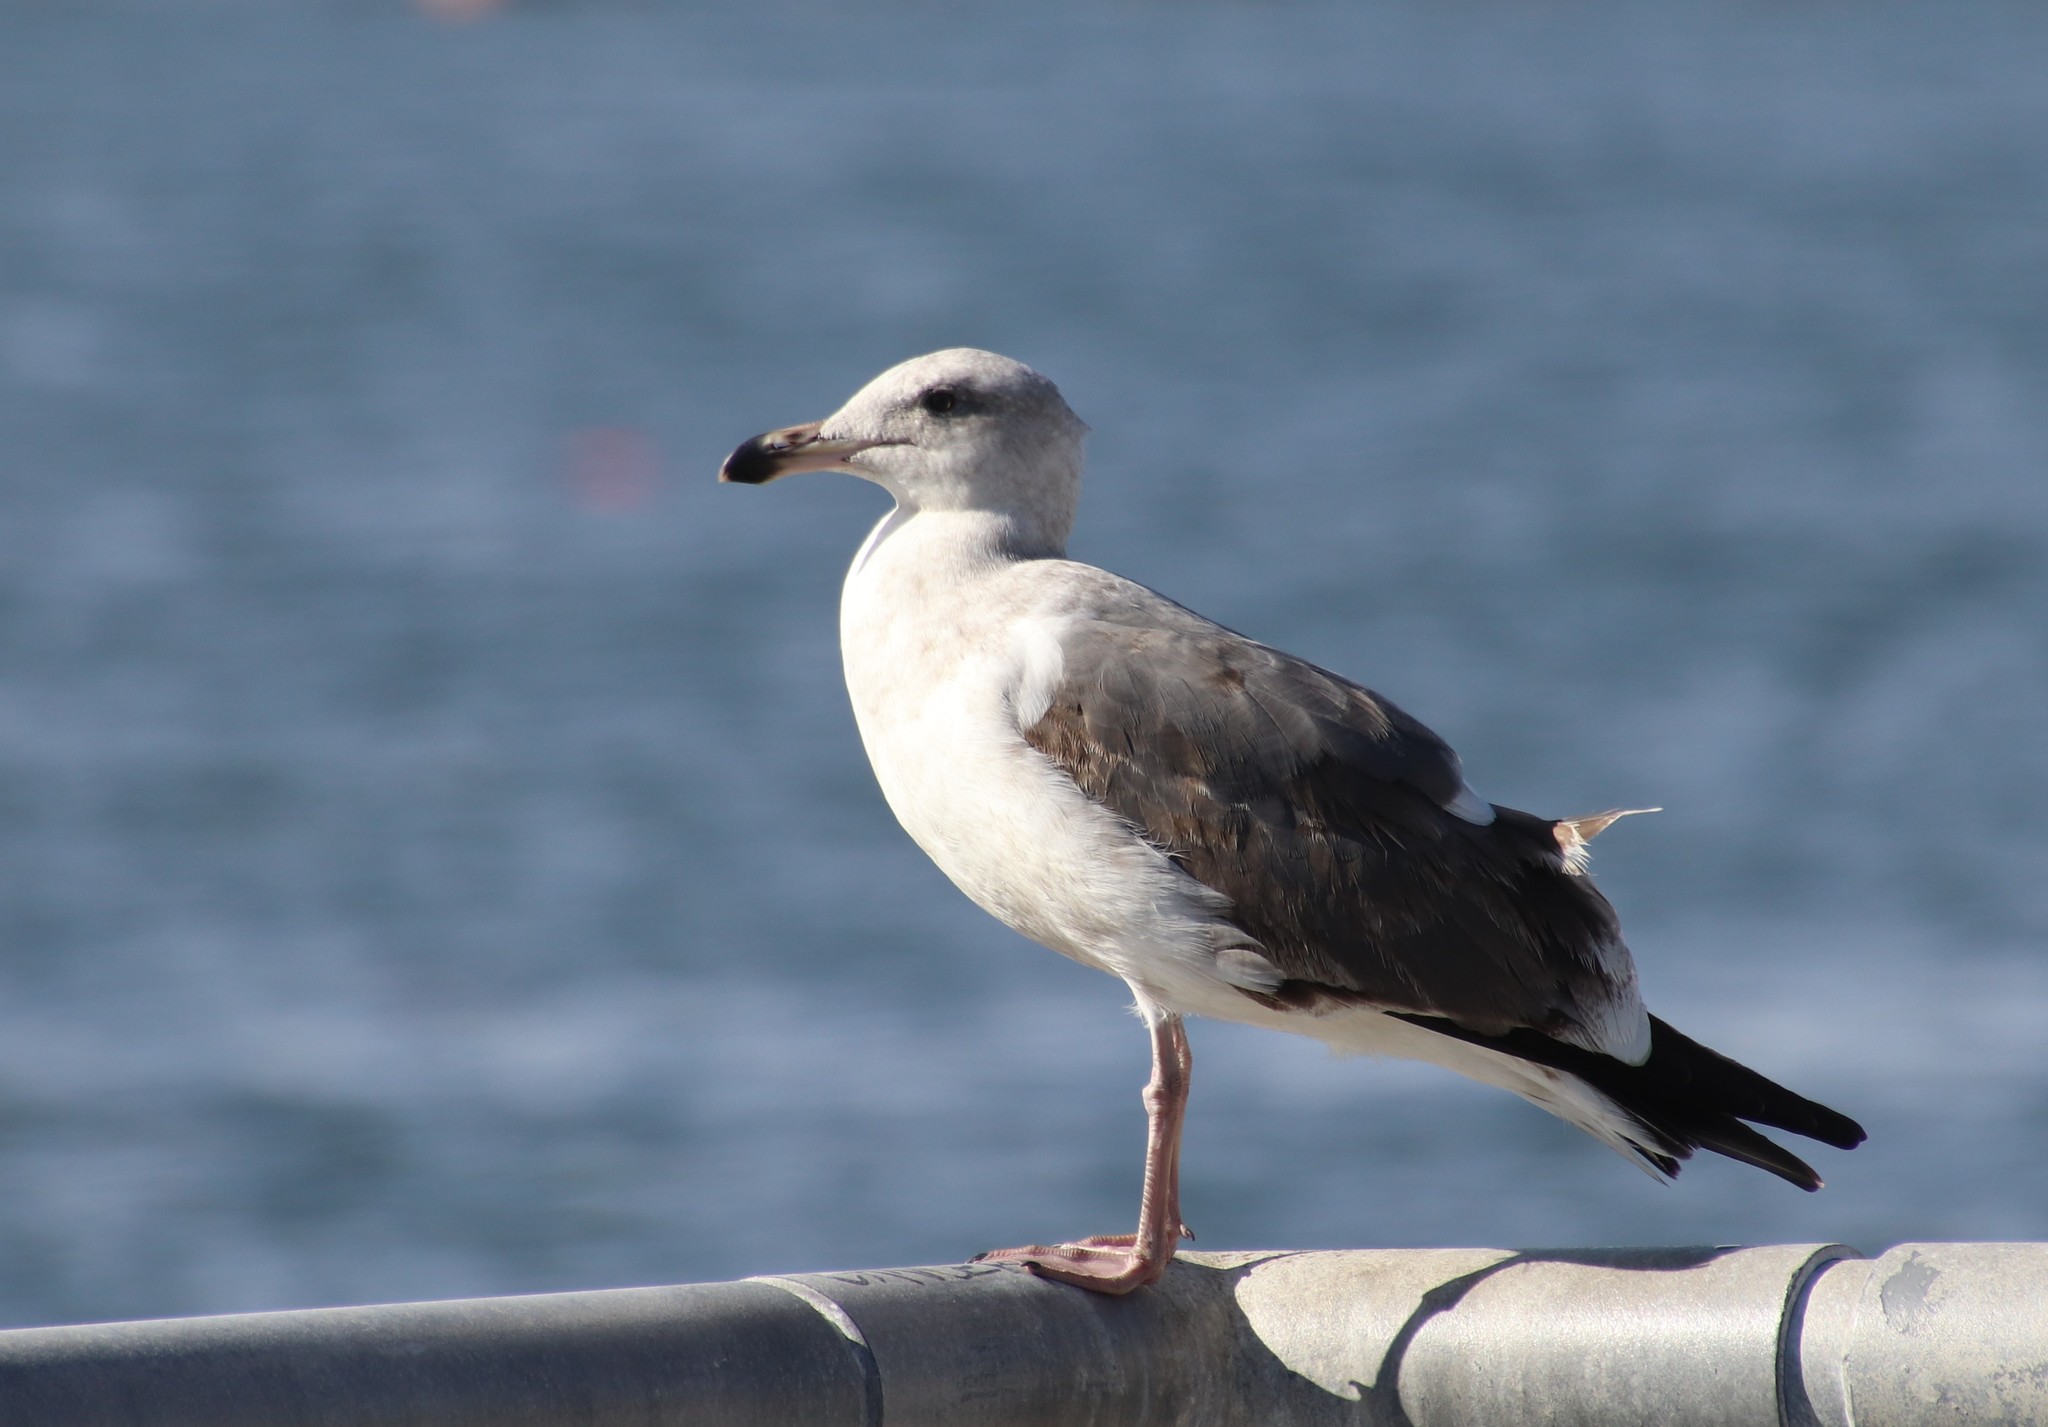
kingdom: Animalia
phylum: Chordata
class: Aves
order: Charadriiformes
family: Laridae
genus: Larus
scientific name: Larus occidentalis
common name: Western gull
